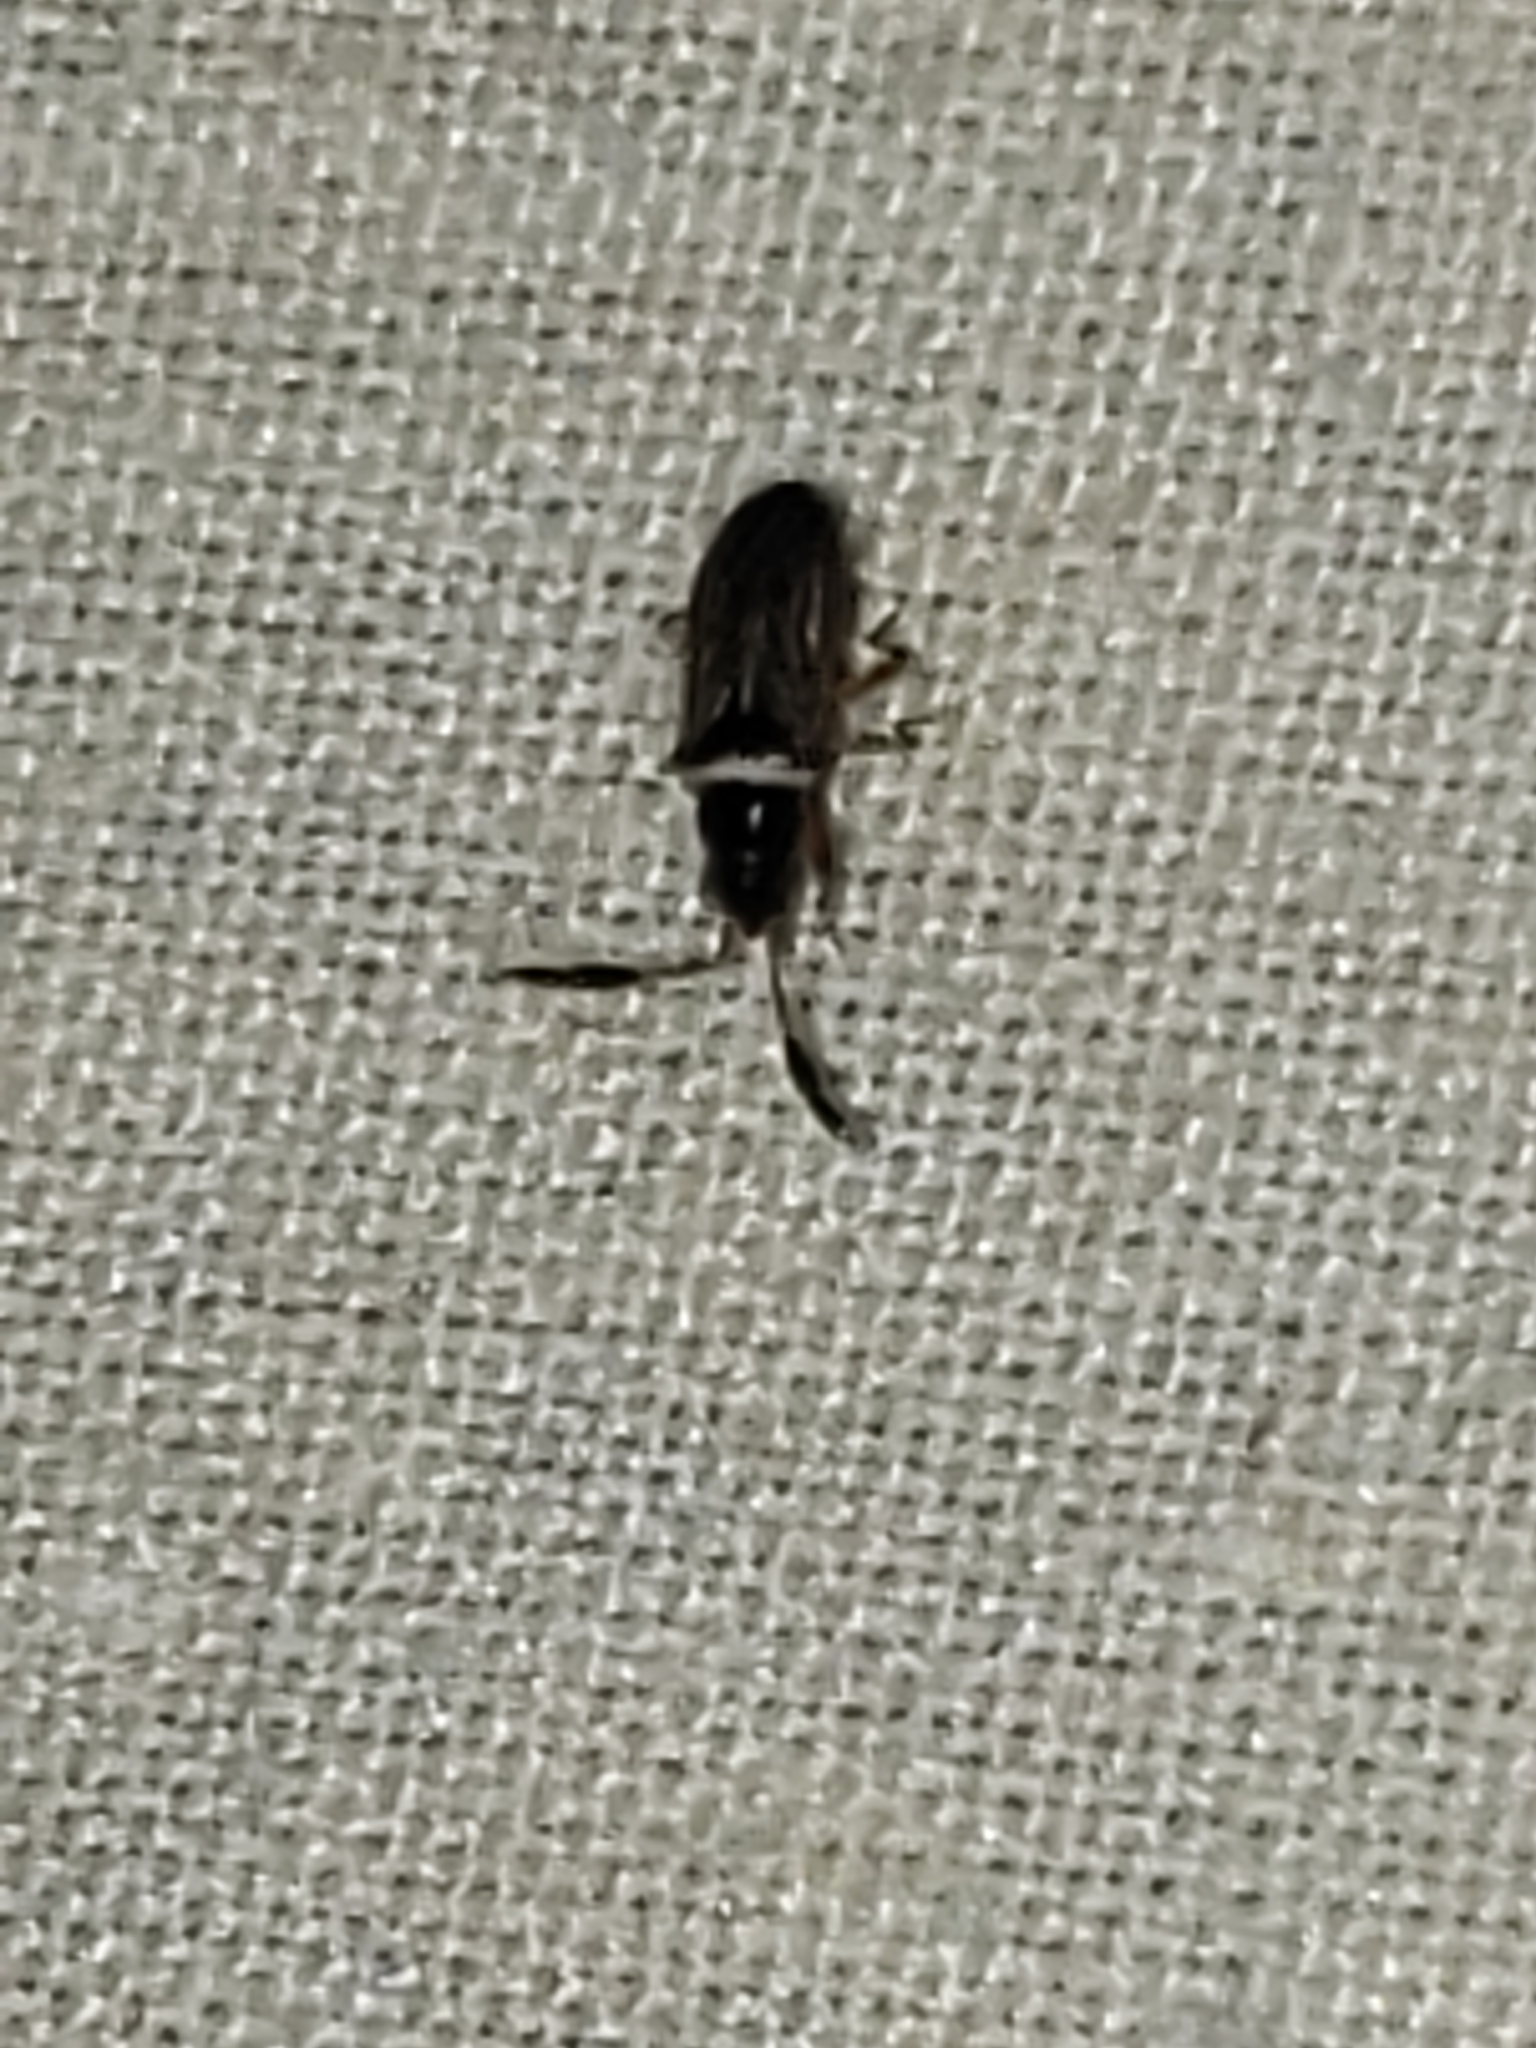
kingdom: Animalia
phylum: Arthropoda
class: Insecta
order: Hemiptera
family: Rhyparochromidae
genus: Ptochiomera
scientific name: Ptochiomera nodosa
